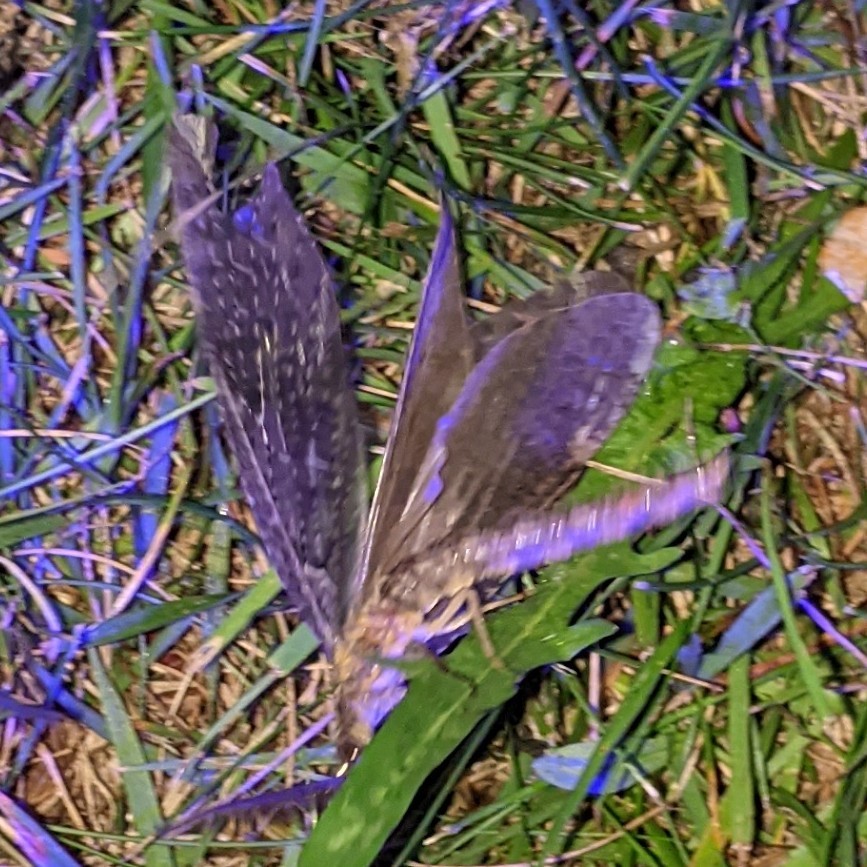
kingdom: Animalia
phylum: Arthropoda
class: Insecta
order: Megaloptera
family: Corydalidae
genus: Chauliodes
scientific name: Chauliodes pectinicornis
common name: Summer fishfly
